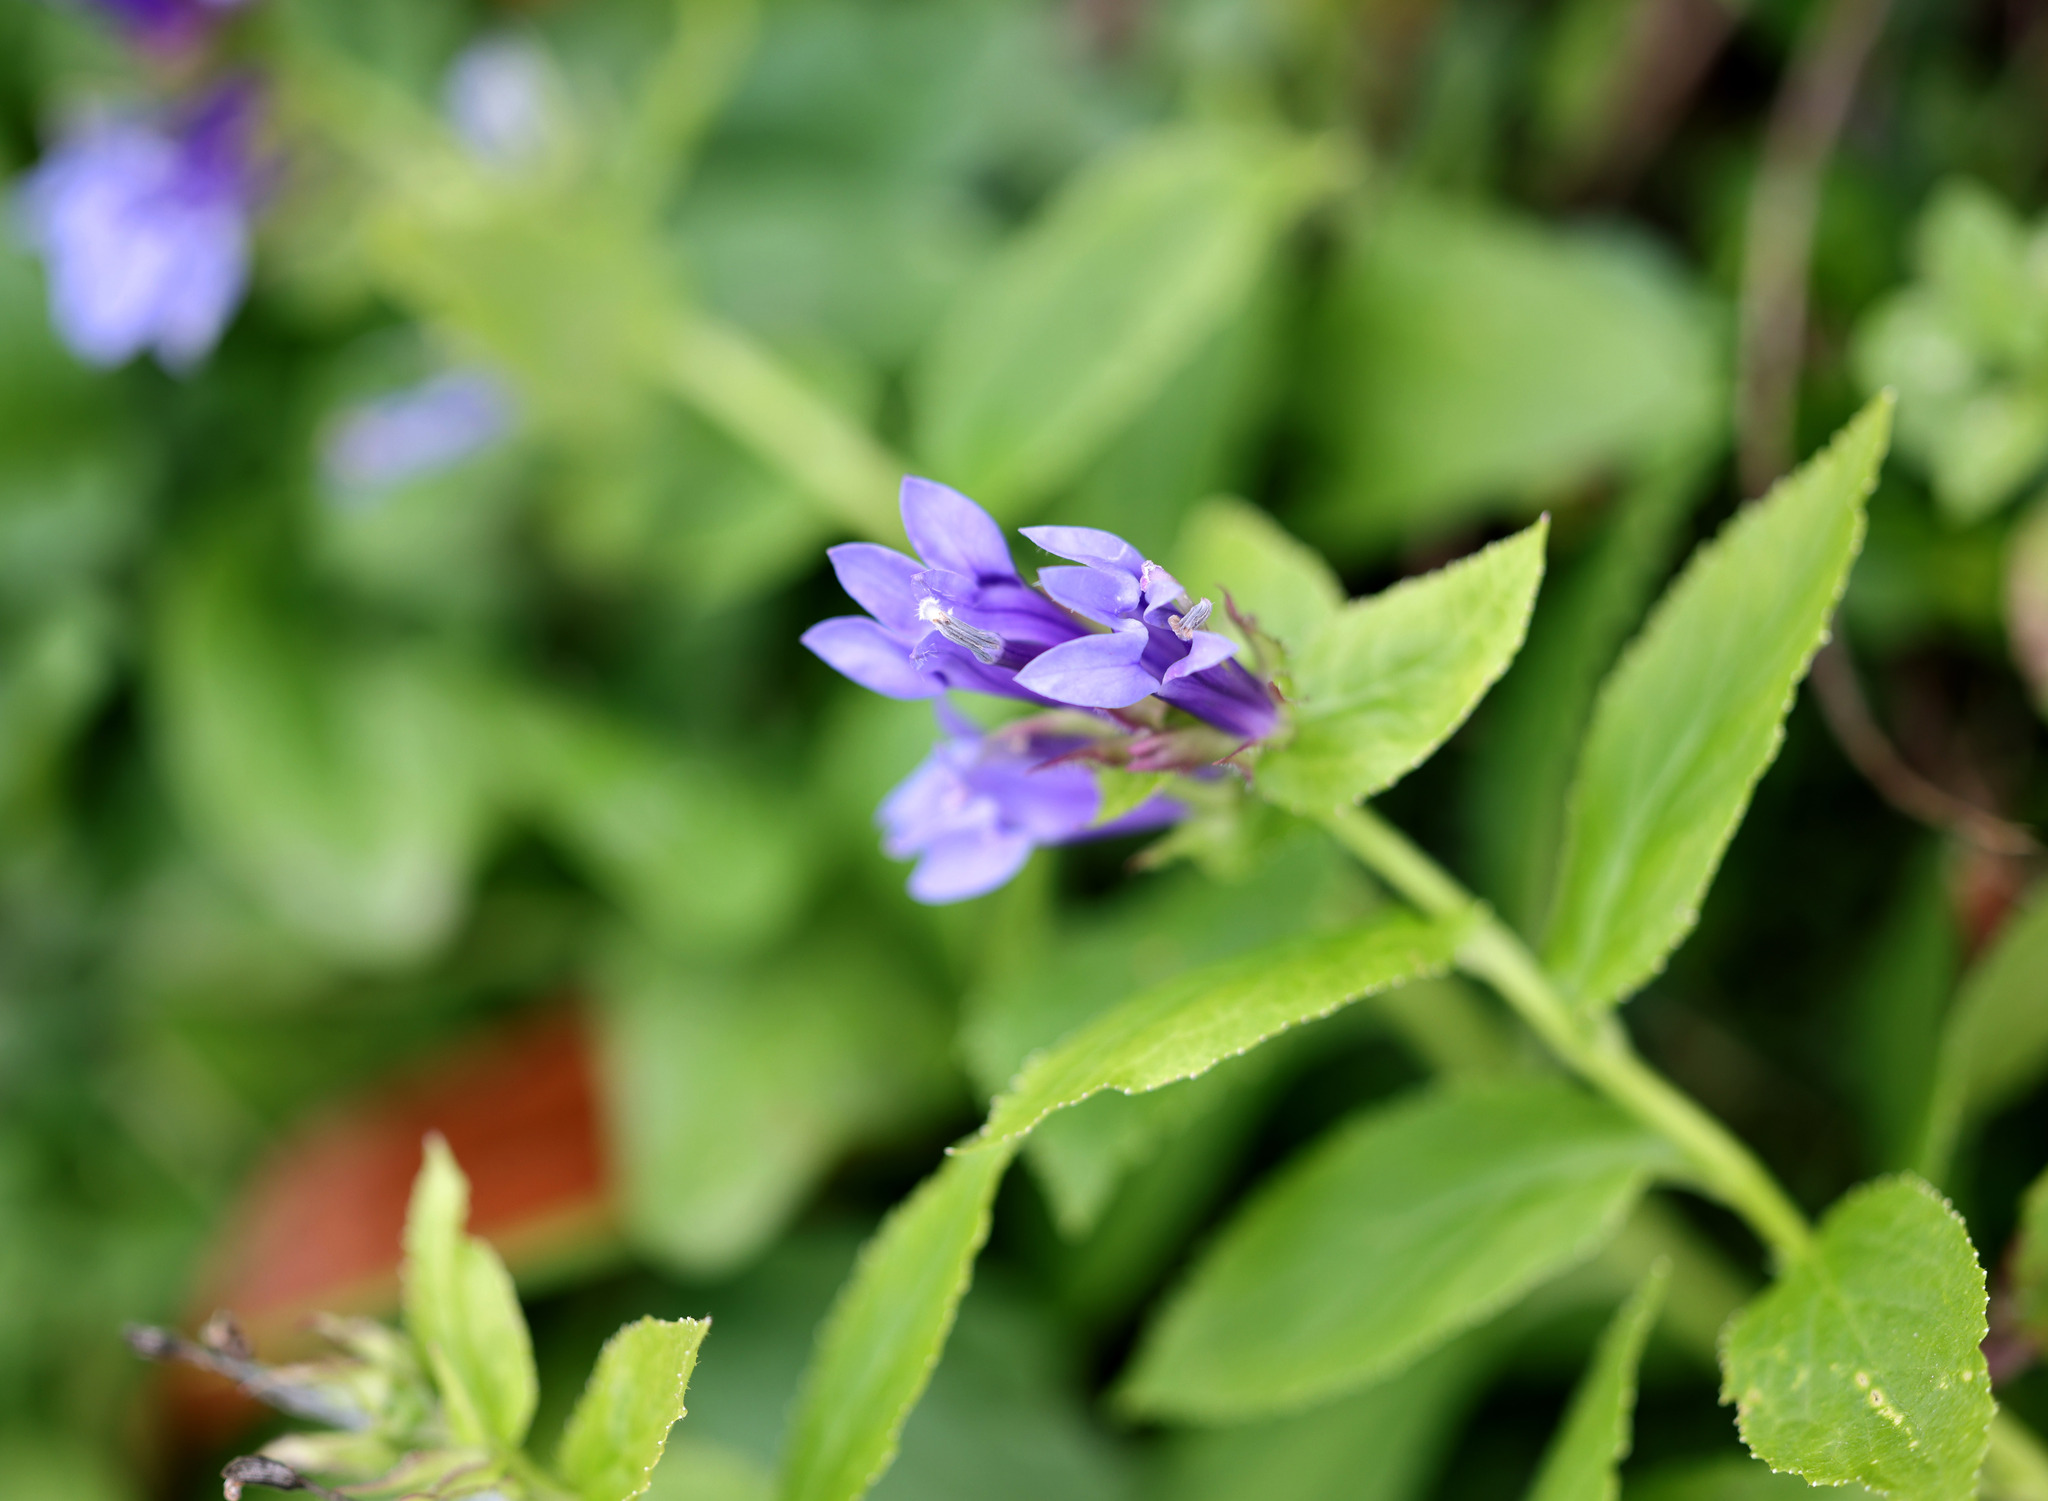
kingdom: Plantae
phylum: Tracheophyta
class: Magnoliopsida
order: Asterales
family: Campanulaceae
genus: Lobelia
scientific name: Lobelia siphilitica
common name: Great lobelia
